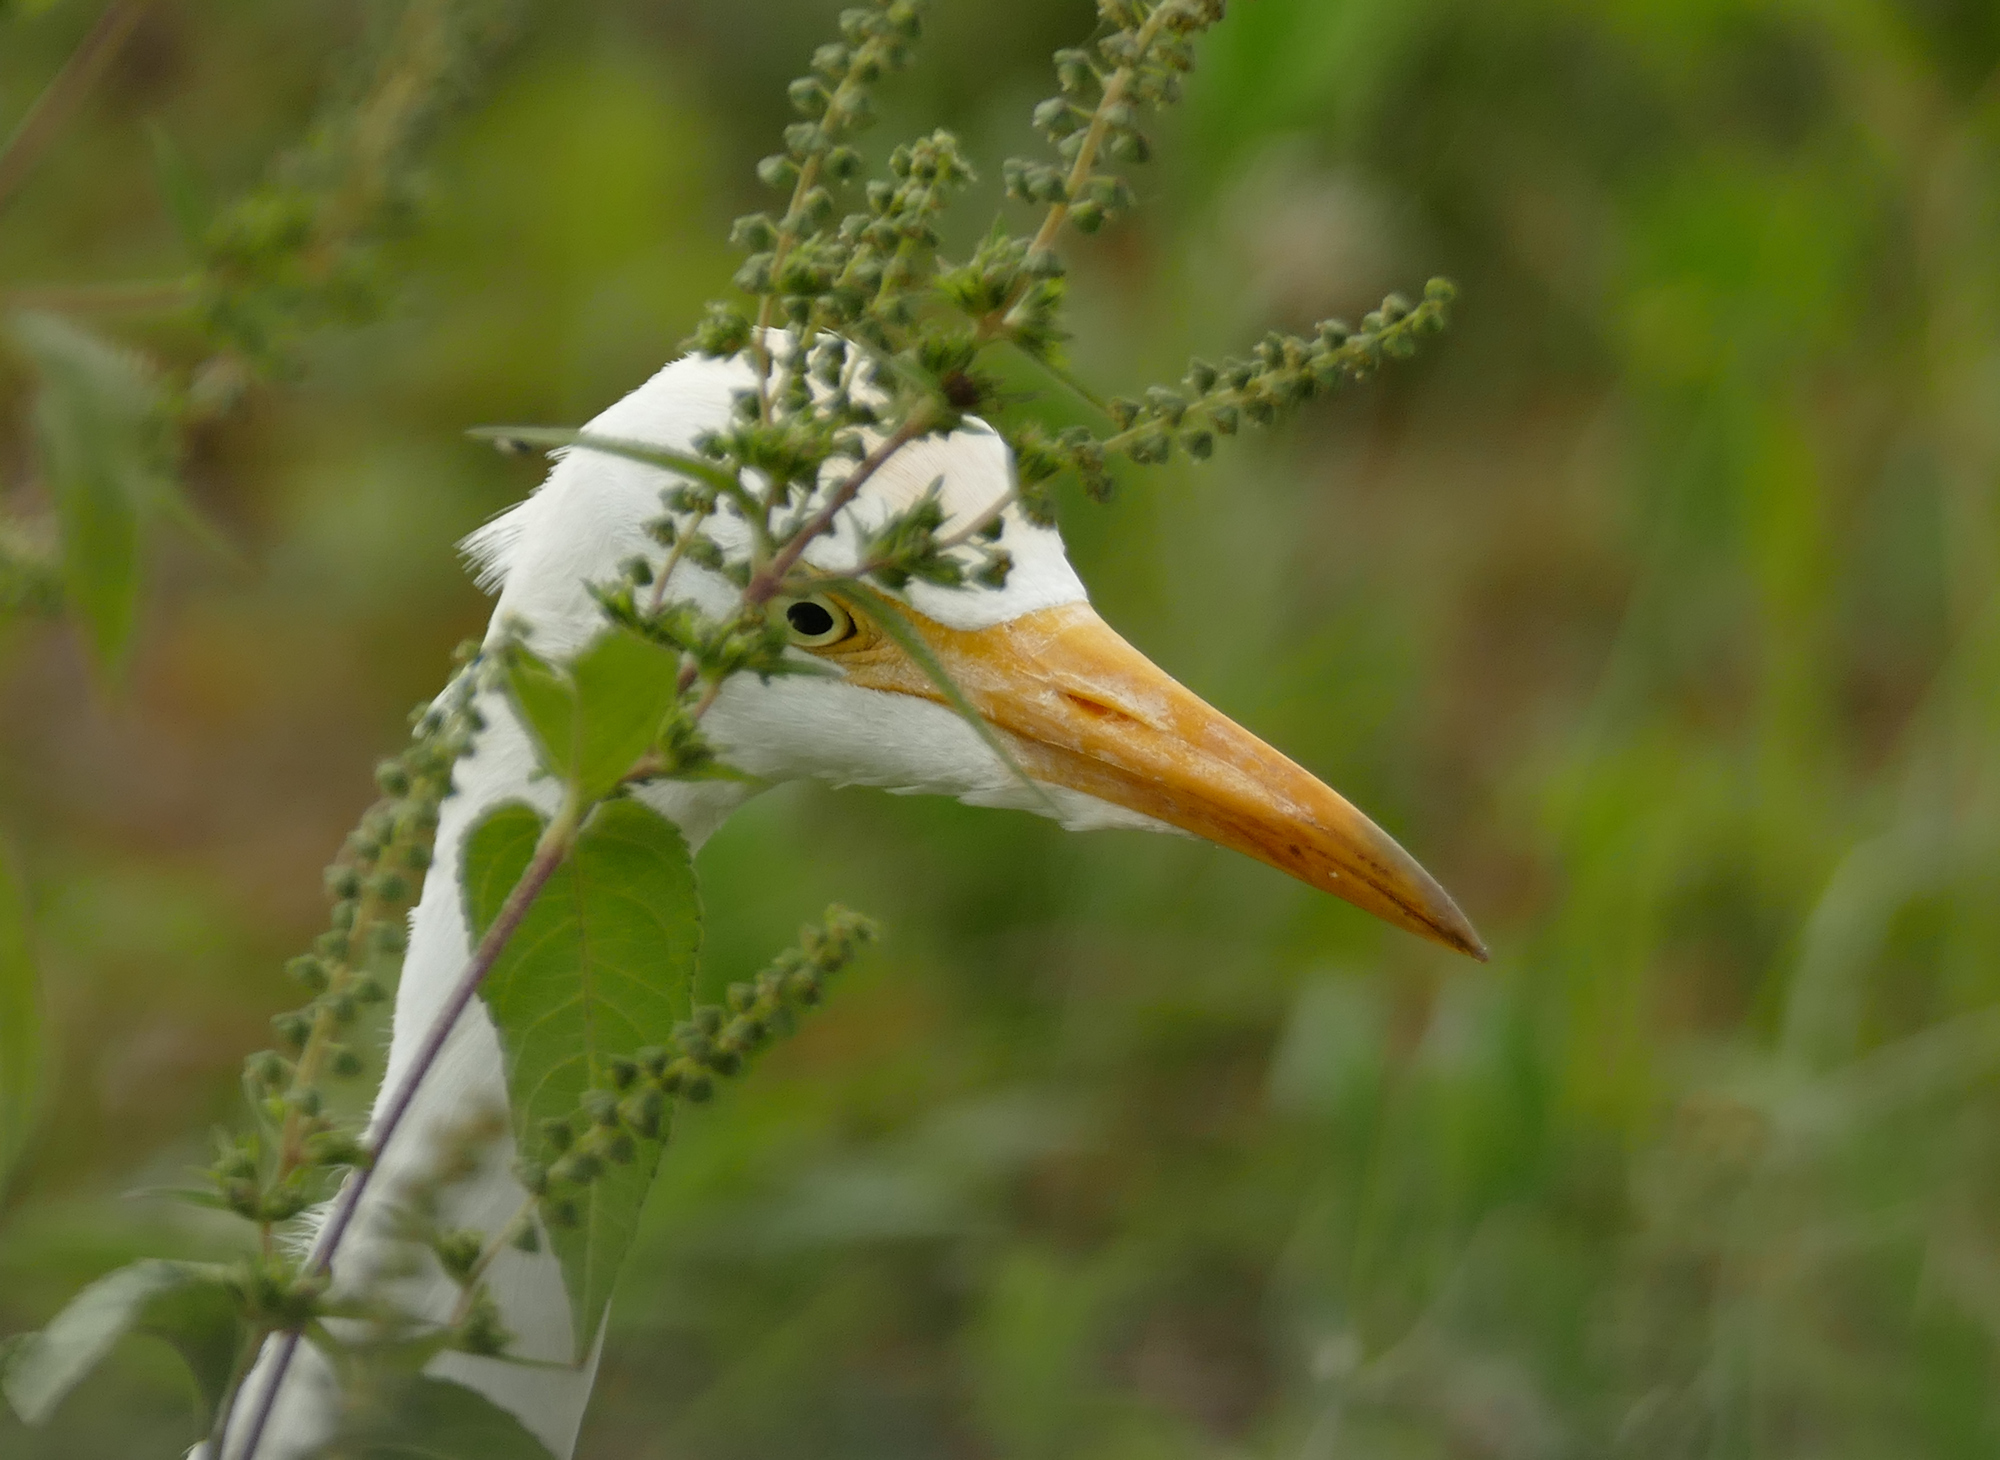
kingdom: Animalia
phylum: Chordata
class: Aves
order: Pelecaniformes
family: Ardeidae
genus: Bubulcus
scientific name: Bubulcus ibis
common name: Cattle egret
